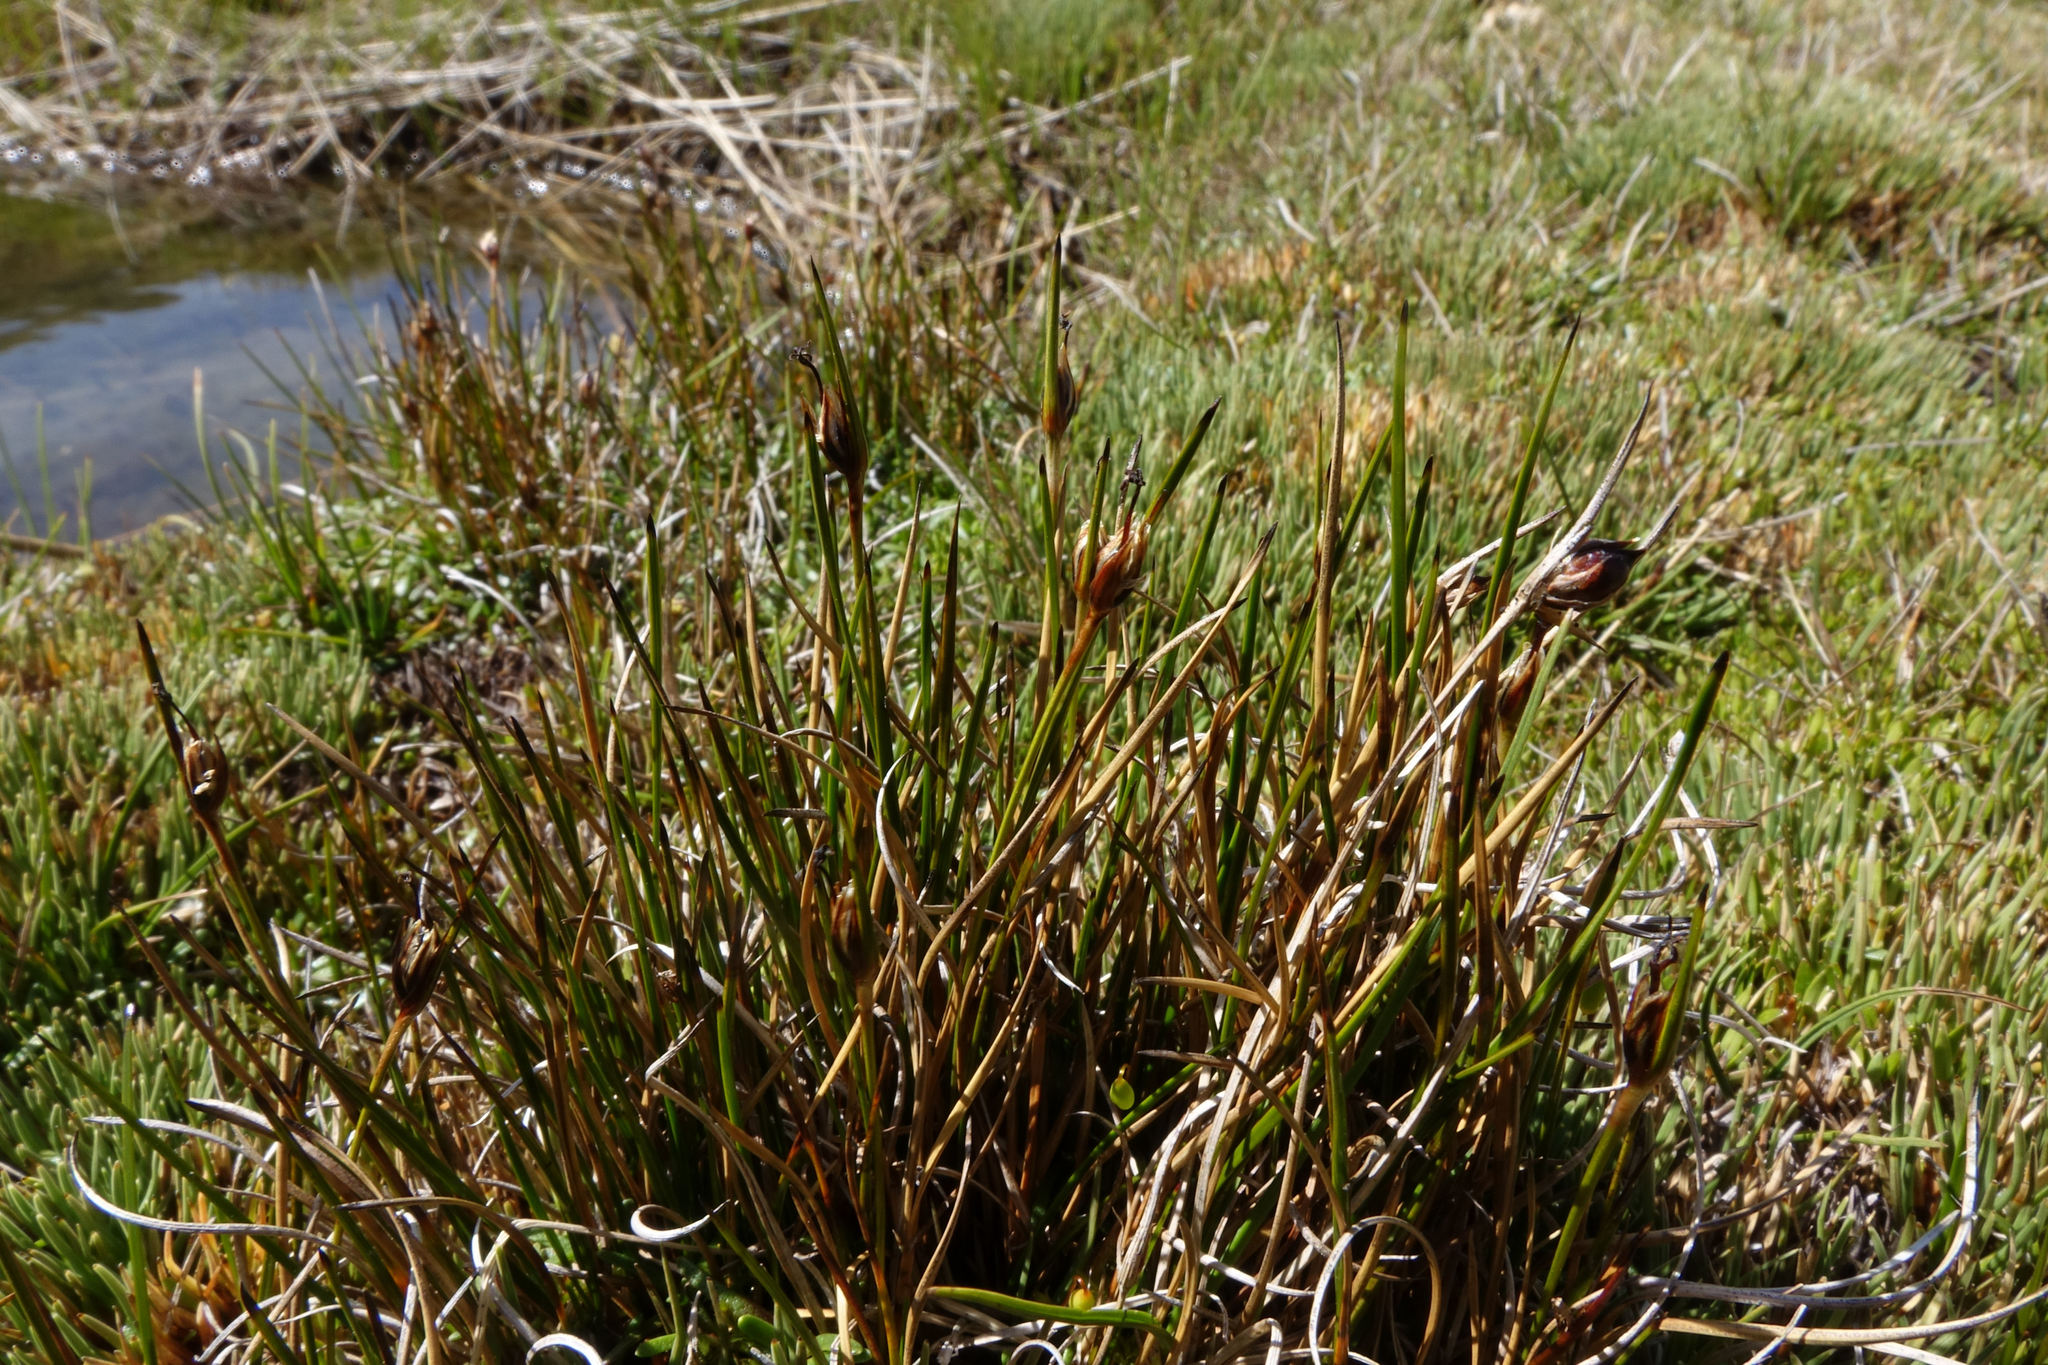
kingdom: Plantae
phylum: Tracheophyta
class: Liliopsida
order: Poales
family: Juncaceae
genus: Marsippospermum
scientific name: Marsippospermum gracile
